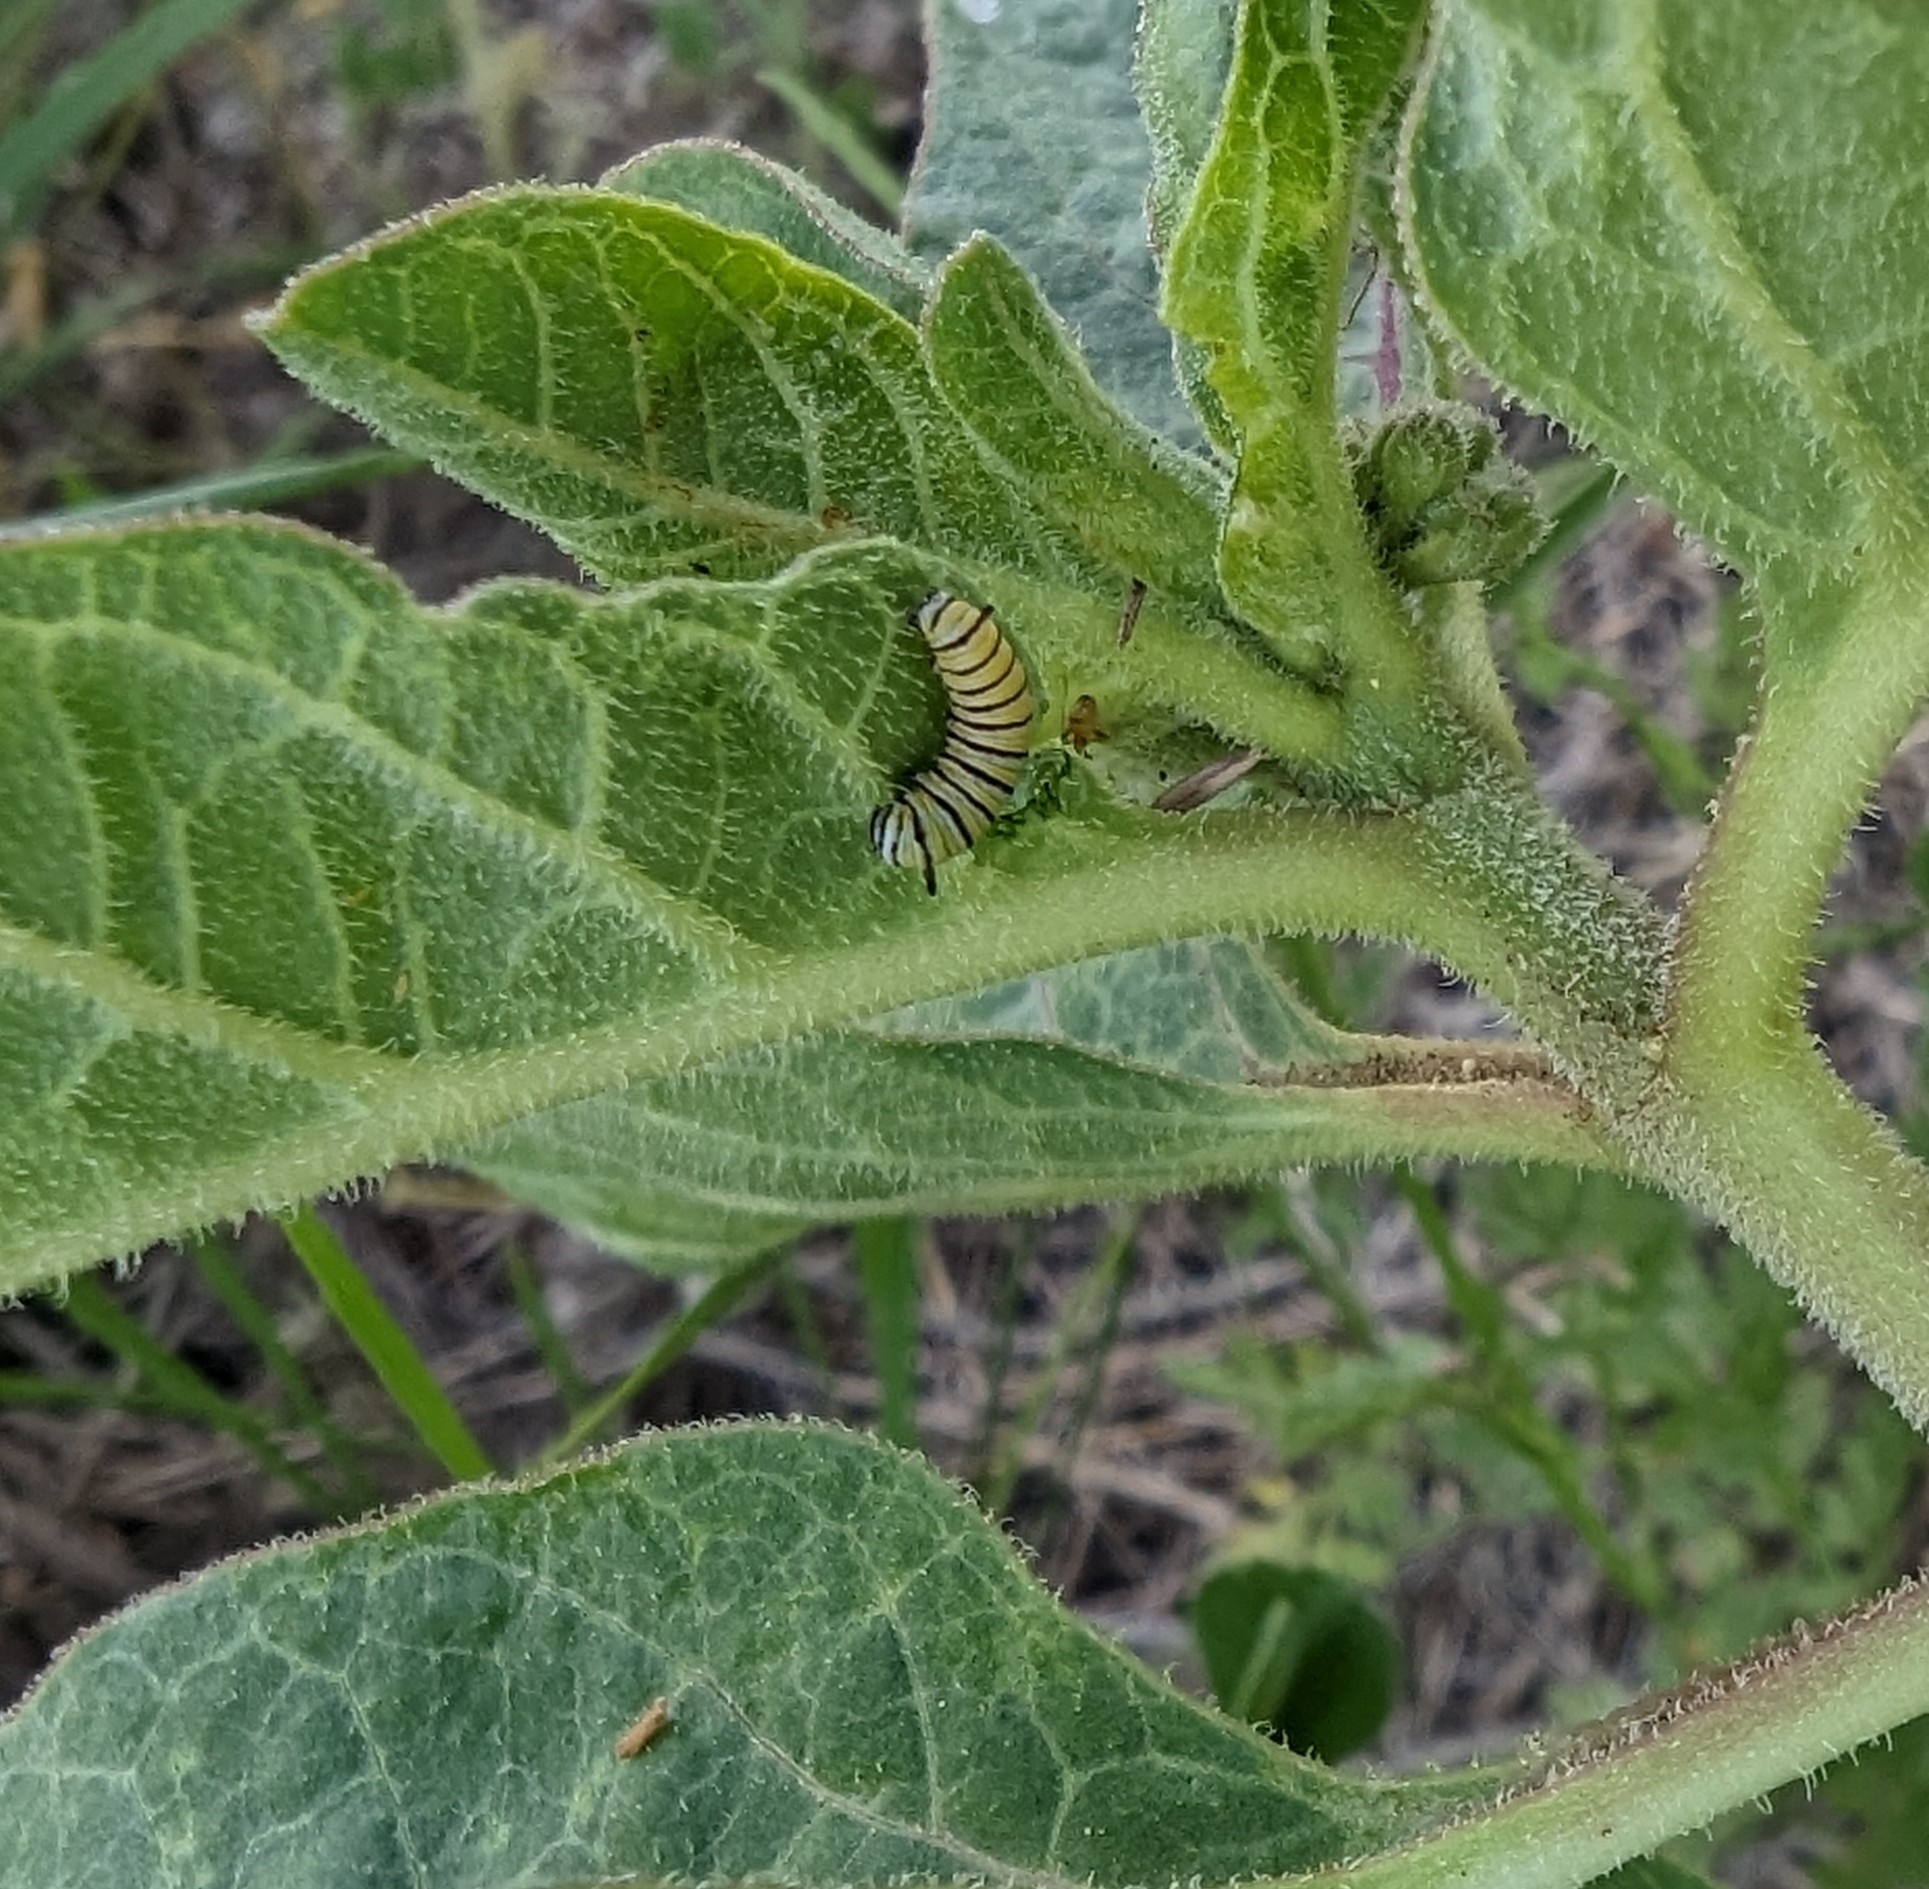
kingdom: Plantae
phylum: Tracheophyta
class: Magnoliopsida
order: Gentianales
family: Apocynaceae
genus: Asclepias
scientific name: Asclepias oenotheroides
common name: Zizotes milkweed
